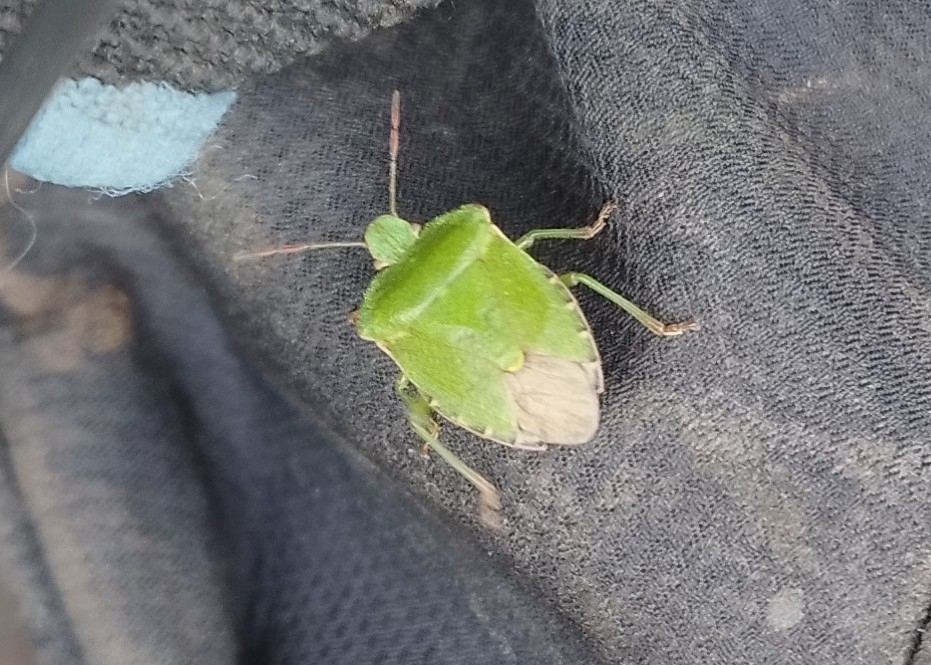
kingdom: Animalia
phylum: Arthropoda
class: Insecta
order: Hemiptera
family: Pentatomidae
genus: Palomena
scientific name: Palomena prasina
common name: Green shieldbug
